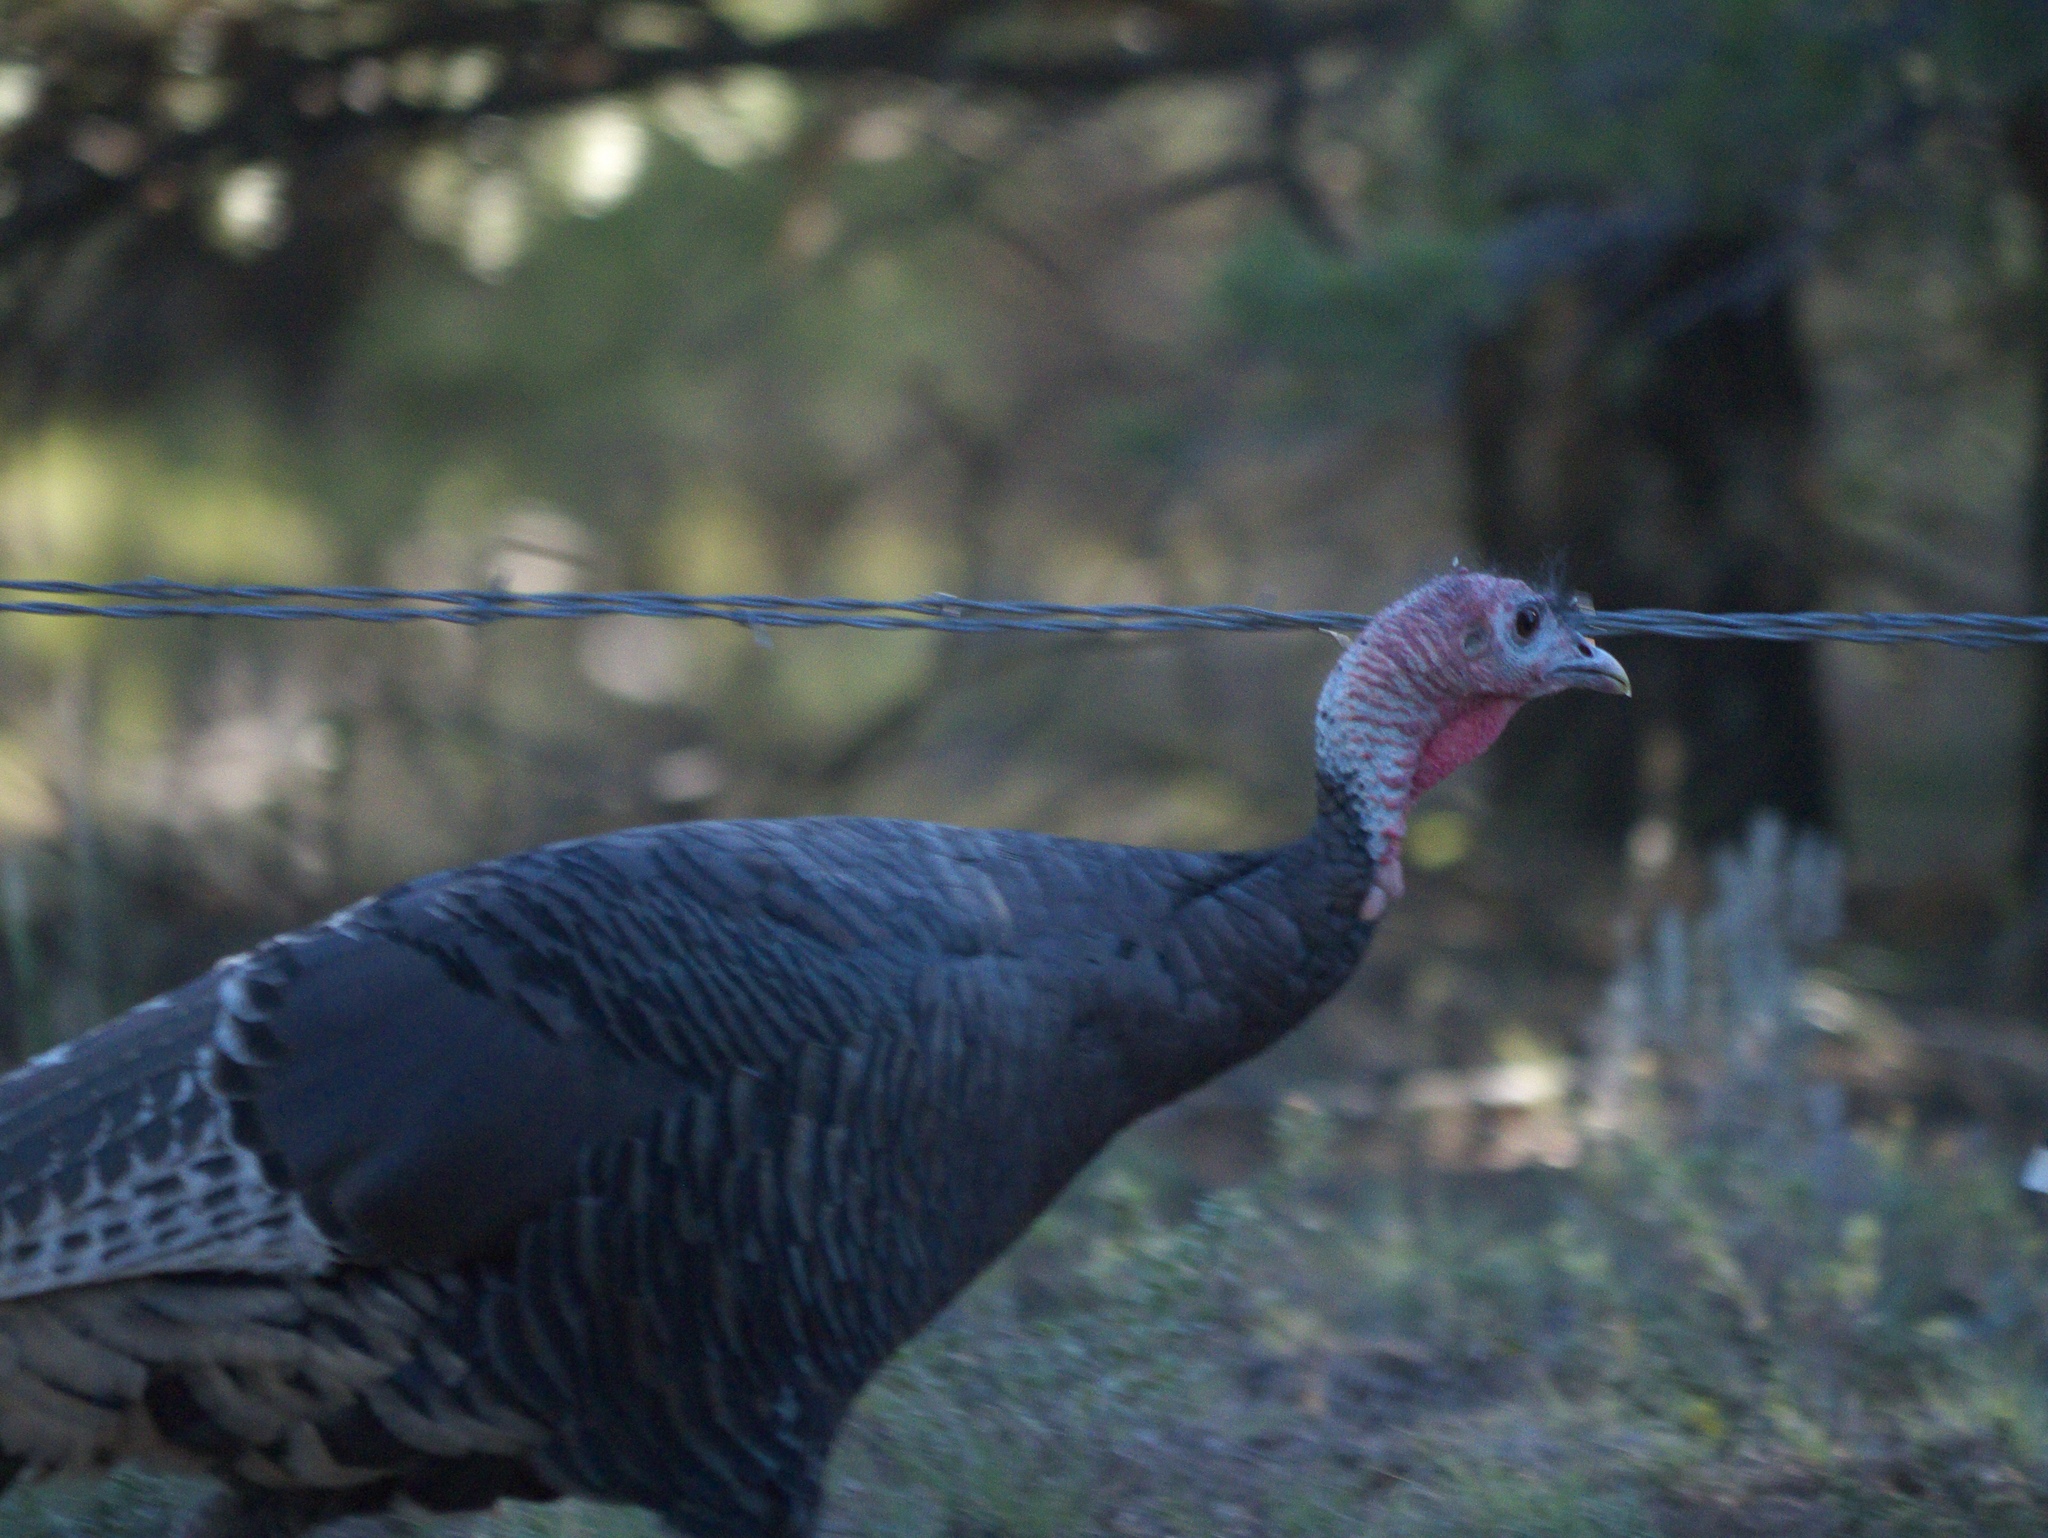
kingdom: Animalia
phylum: Chordata
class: Aves
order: Galliformes
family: Phasianidae
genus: Meleagris
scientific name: Meleagris gallopavo
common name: Wild turkey
